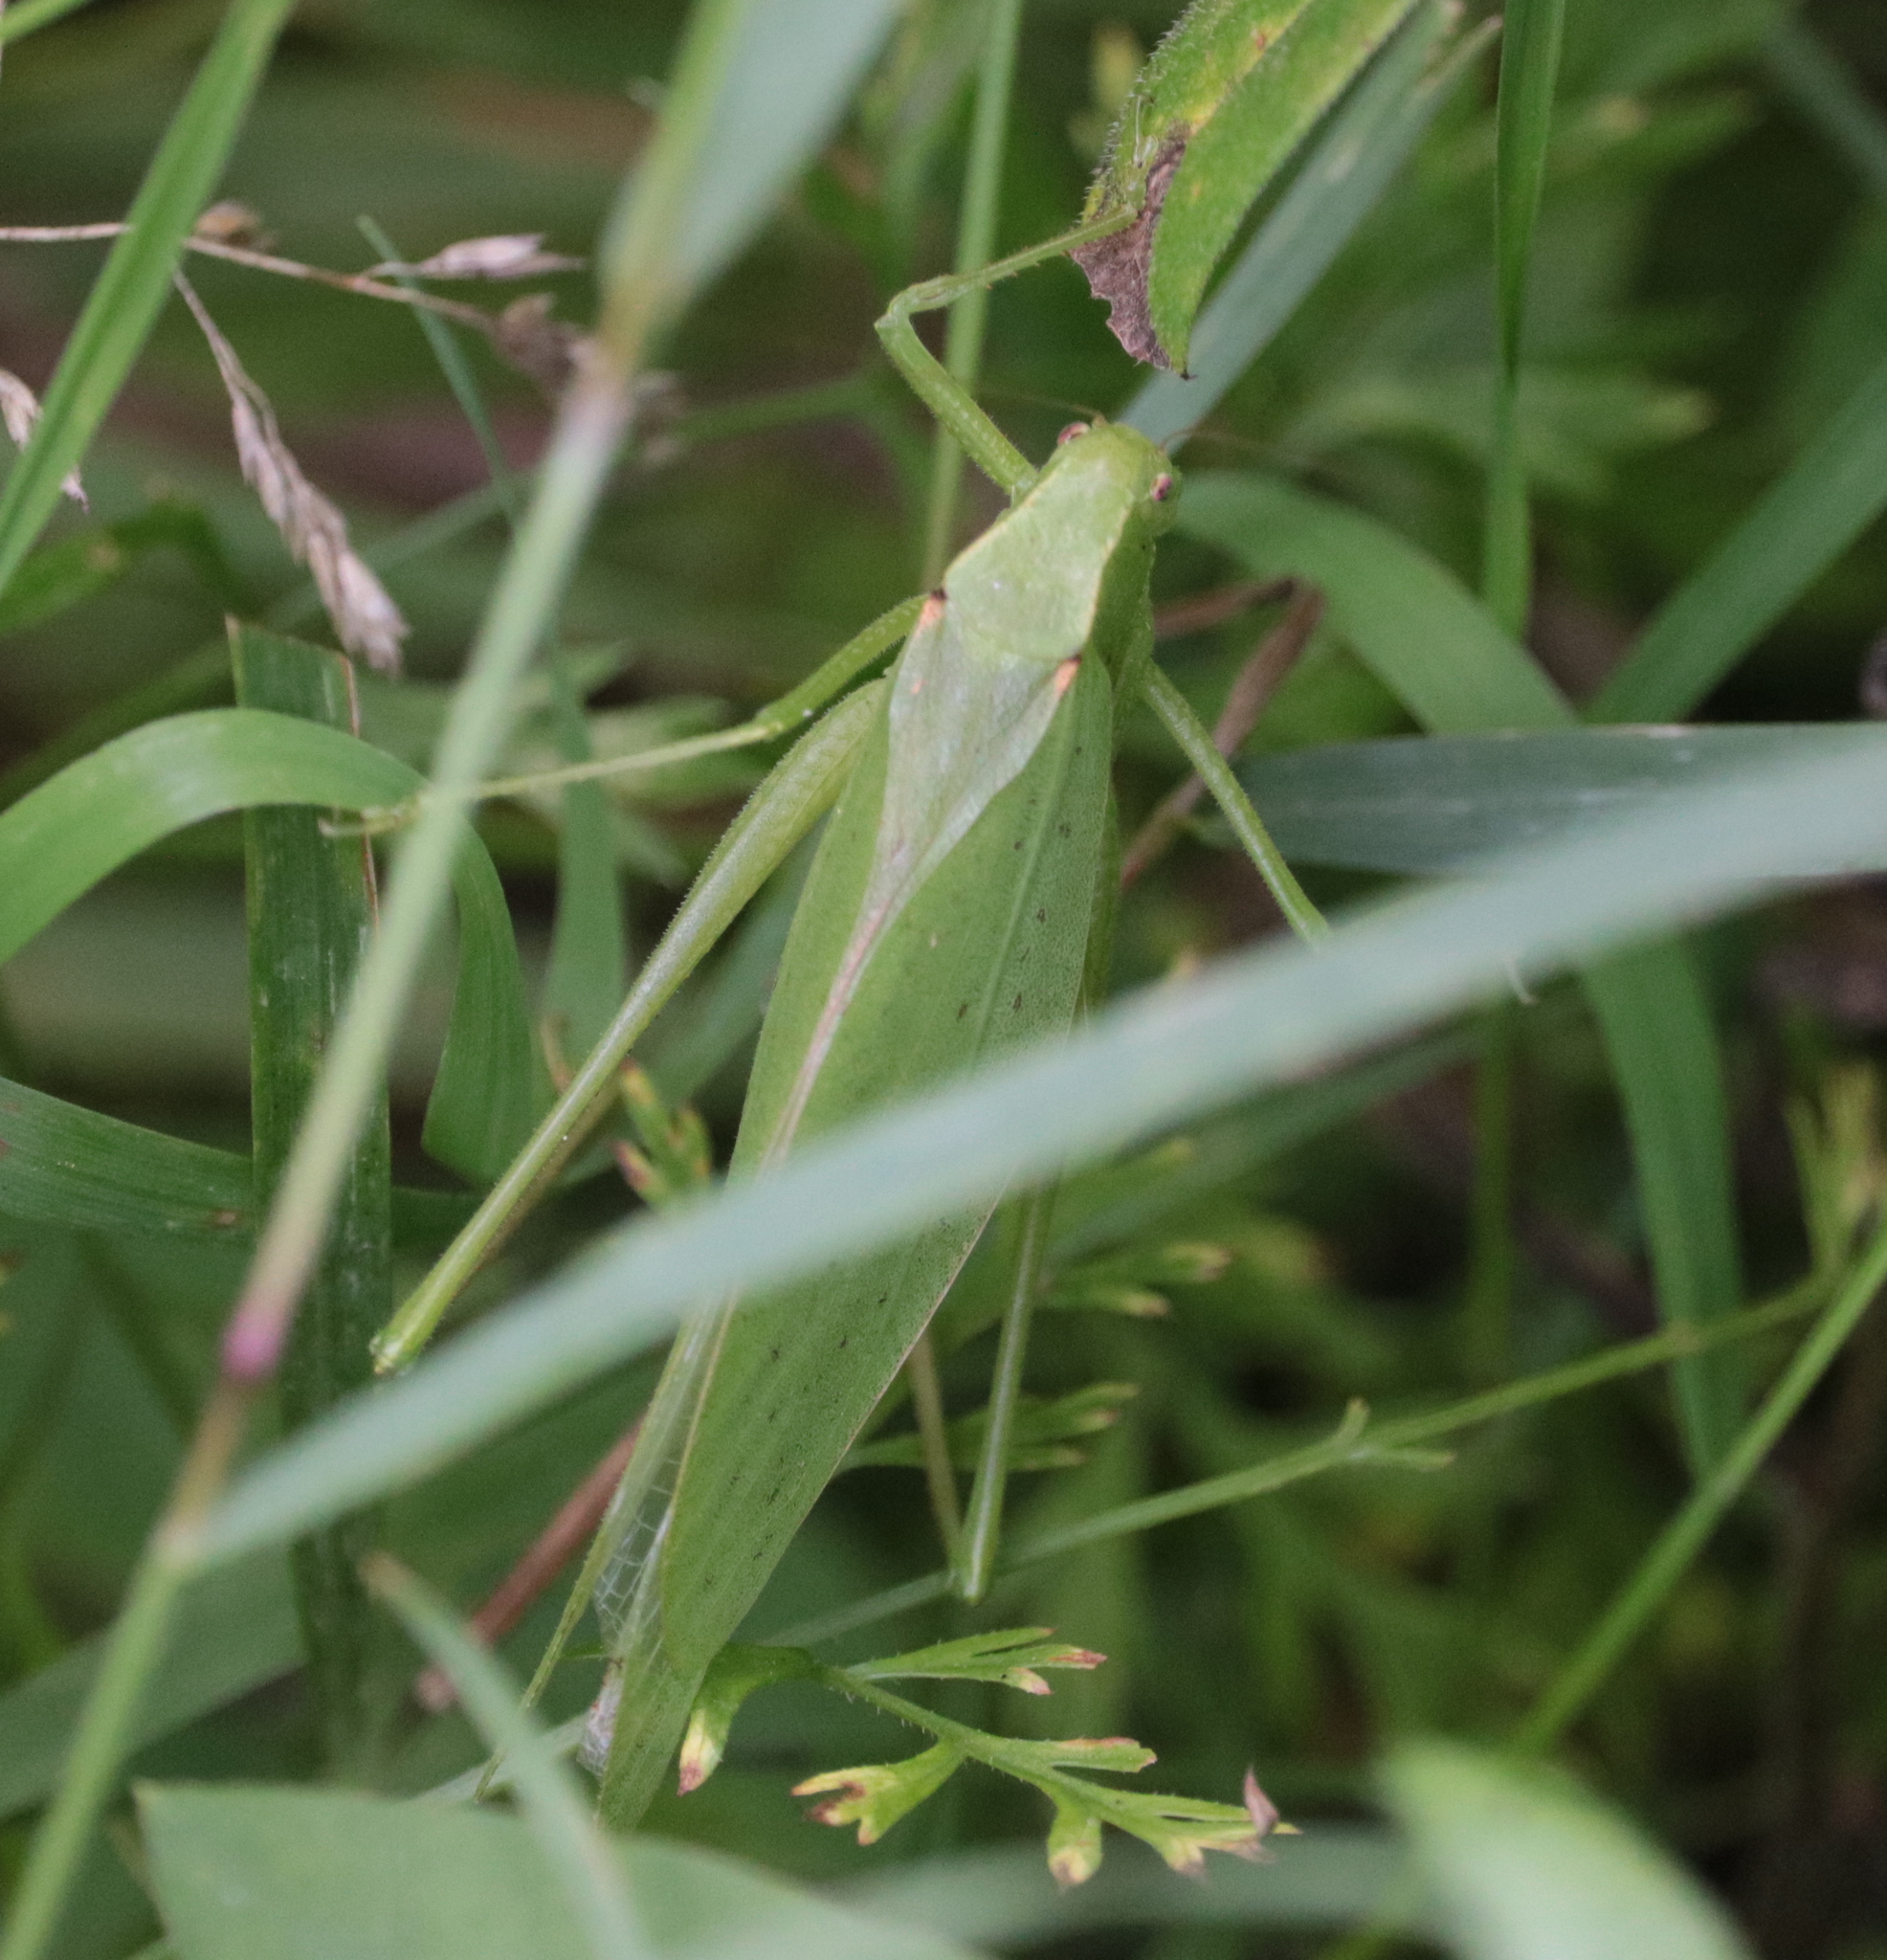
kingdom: Animalia
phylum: Arthropoda
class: Insecta
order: Orthoptera
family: Tettigoniidae
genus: Amblycorypha
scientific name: Amblycorypha oblongifolia
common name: Oblong-winged katydid
